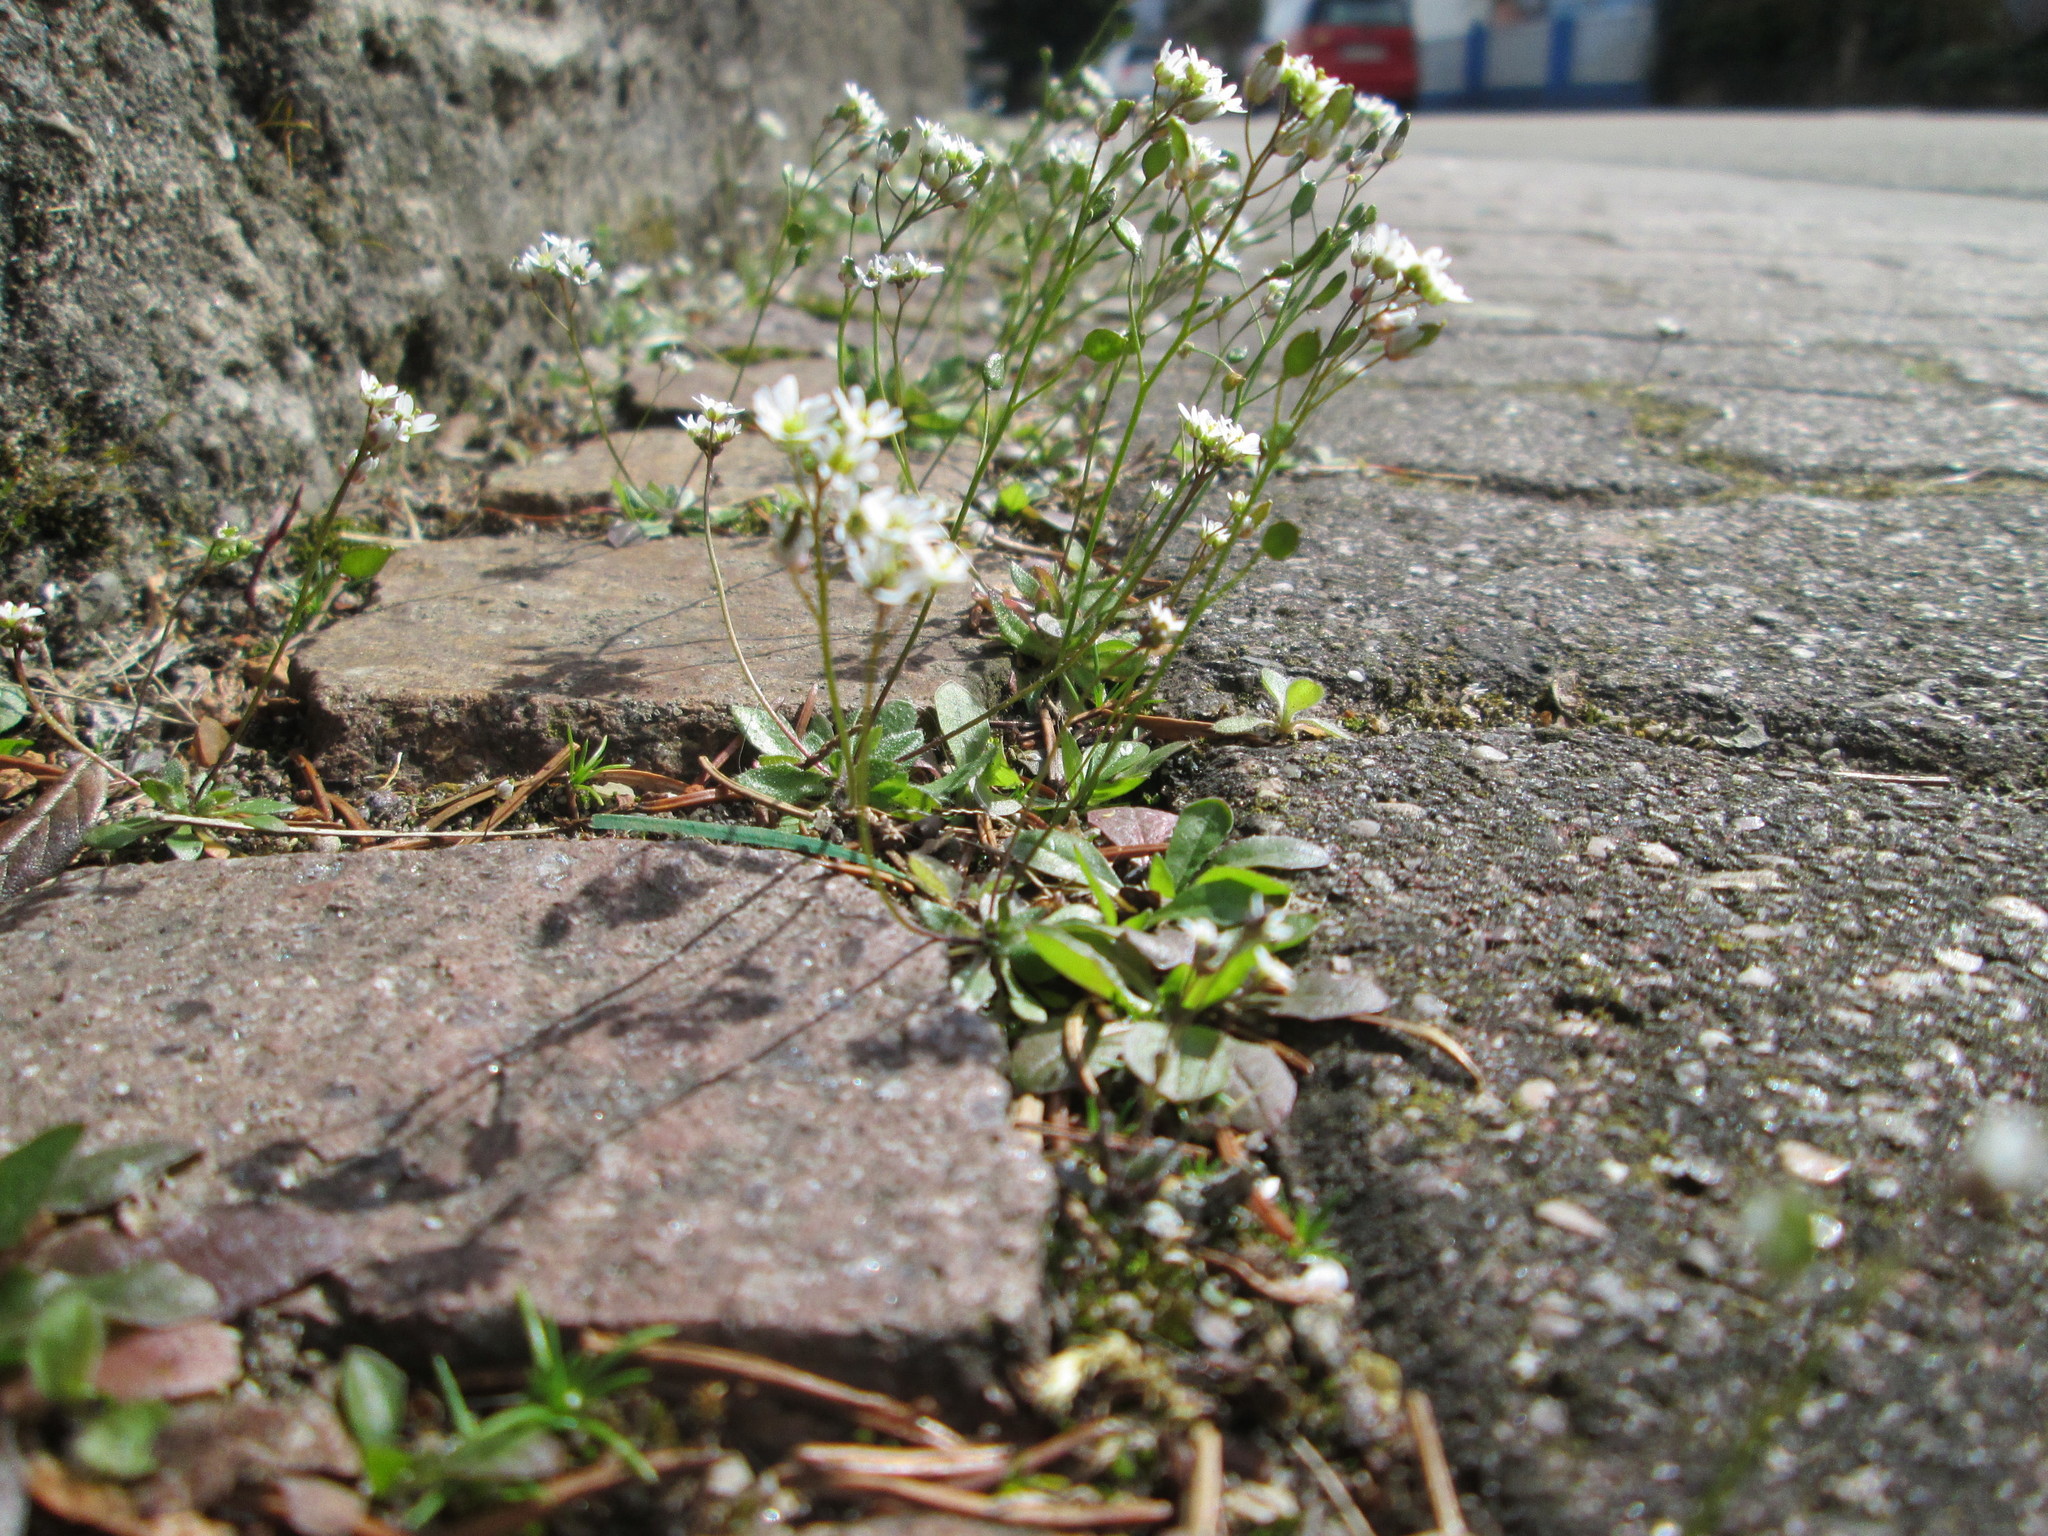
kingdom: Plantae
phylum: Tracheophyta
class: Magnoliopsida
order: Brassicales
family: Brassicaceae
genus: Draba
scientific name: Draba verna
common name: Spring draba
